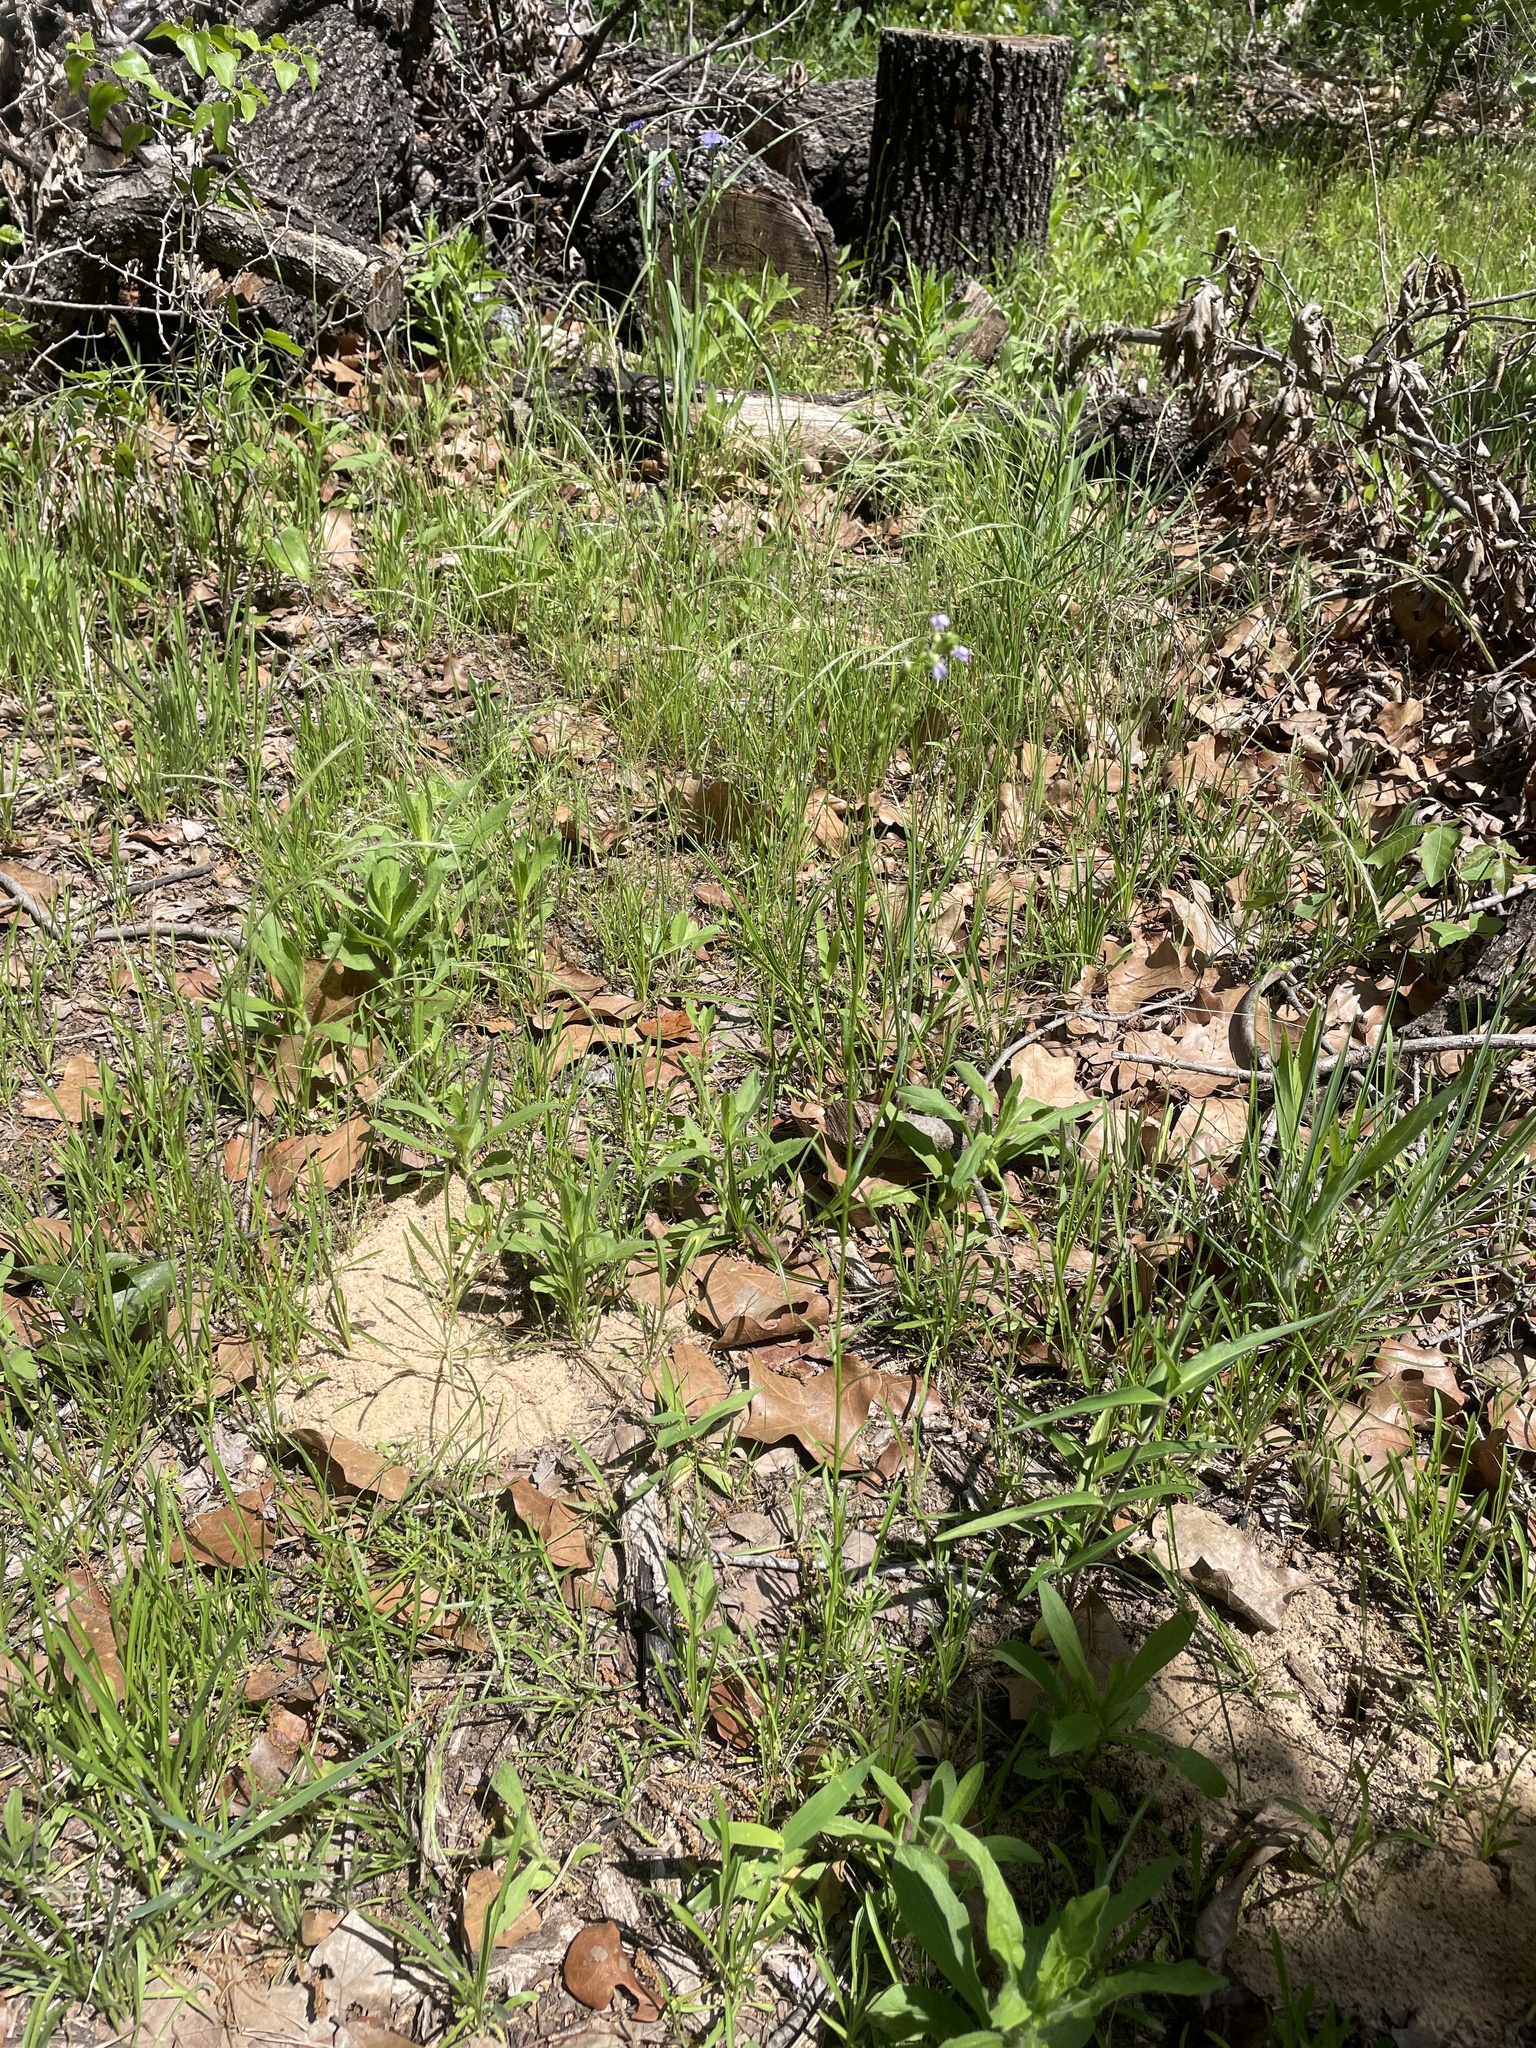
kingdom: Plantae
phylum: Tracheophyta
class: Magnoliopsida
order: Lamiales
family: Plantaginaceae
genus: Nuttallanthus
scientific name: Nuttallanthus texanus
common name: Texas toadflax
